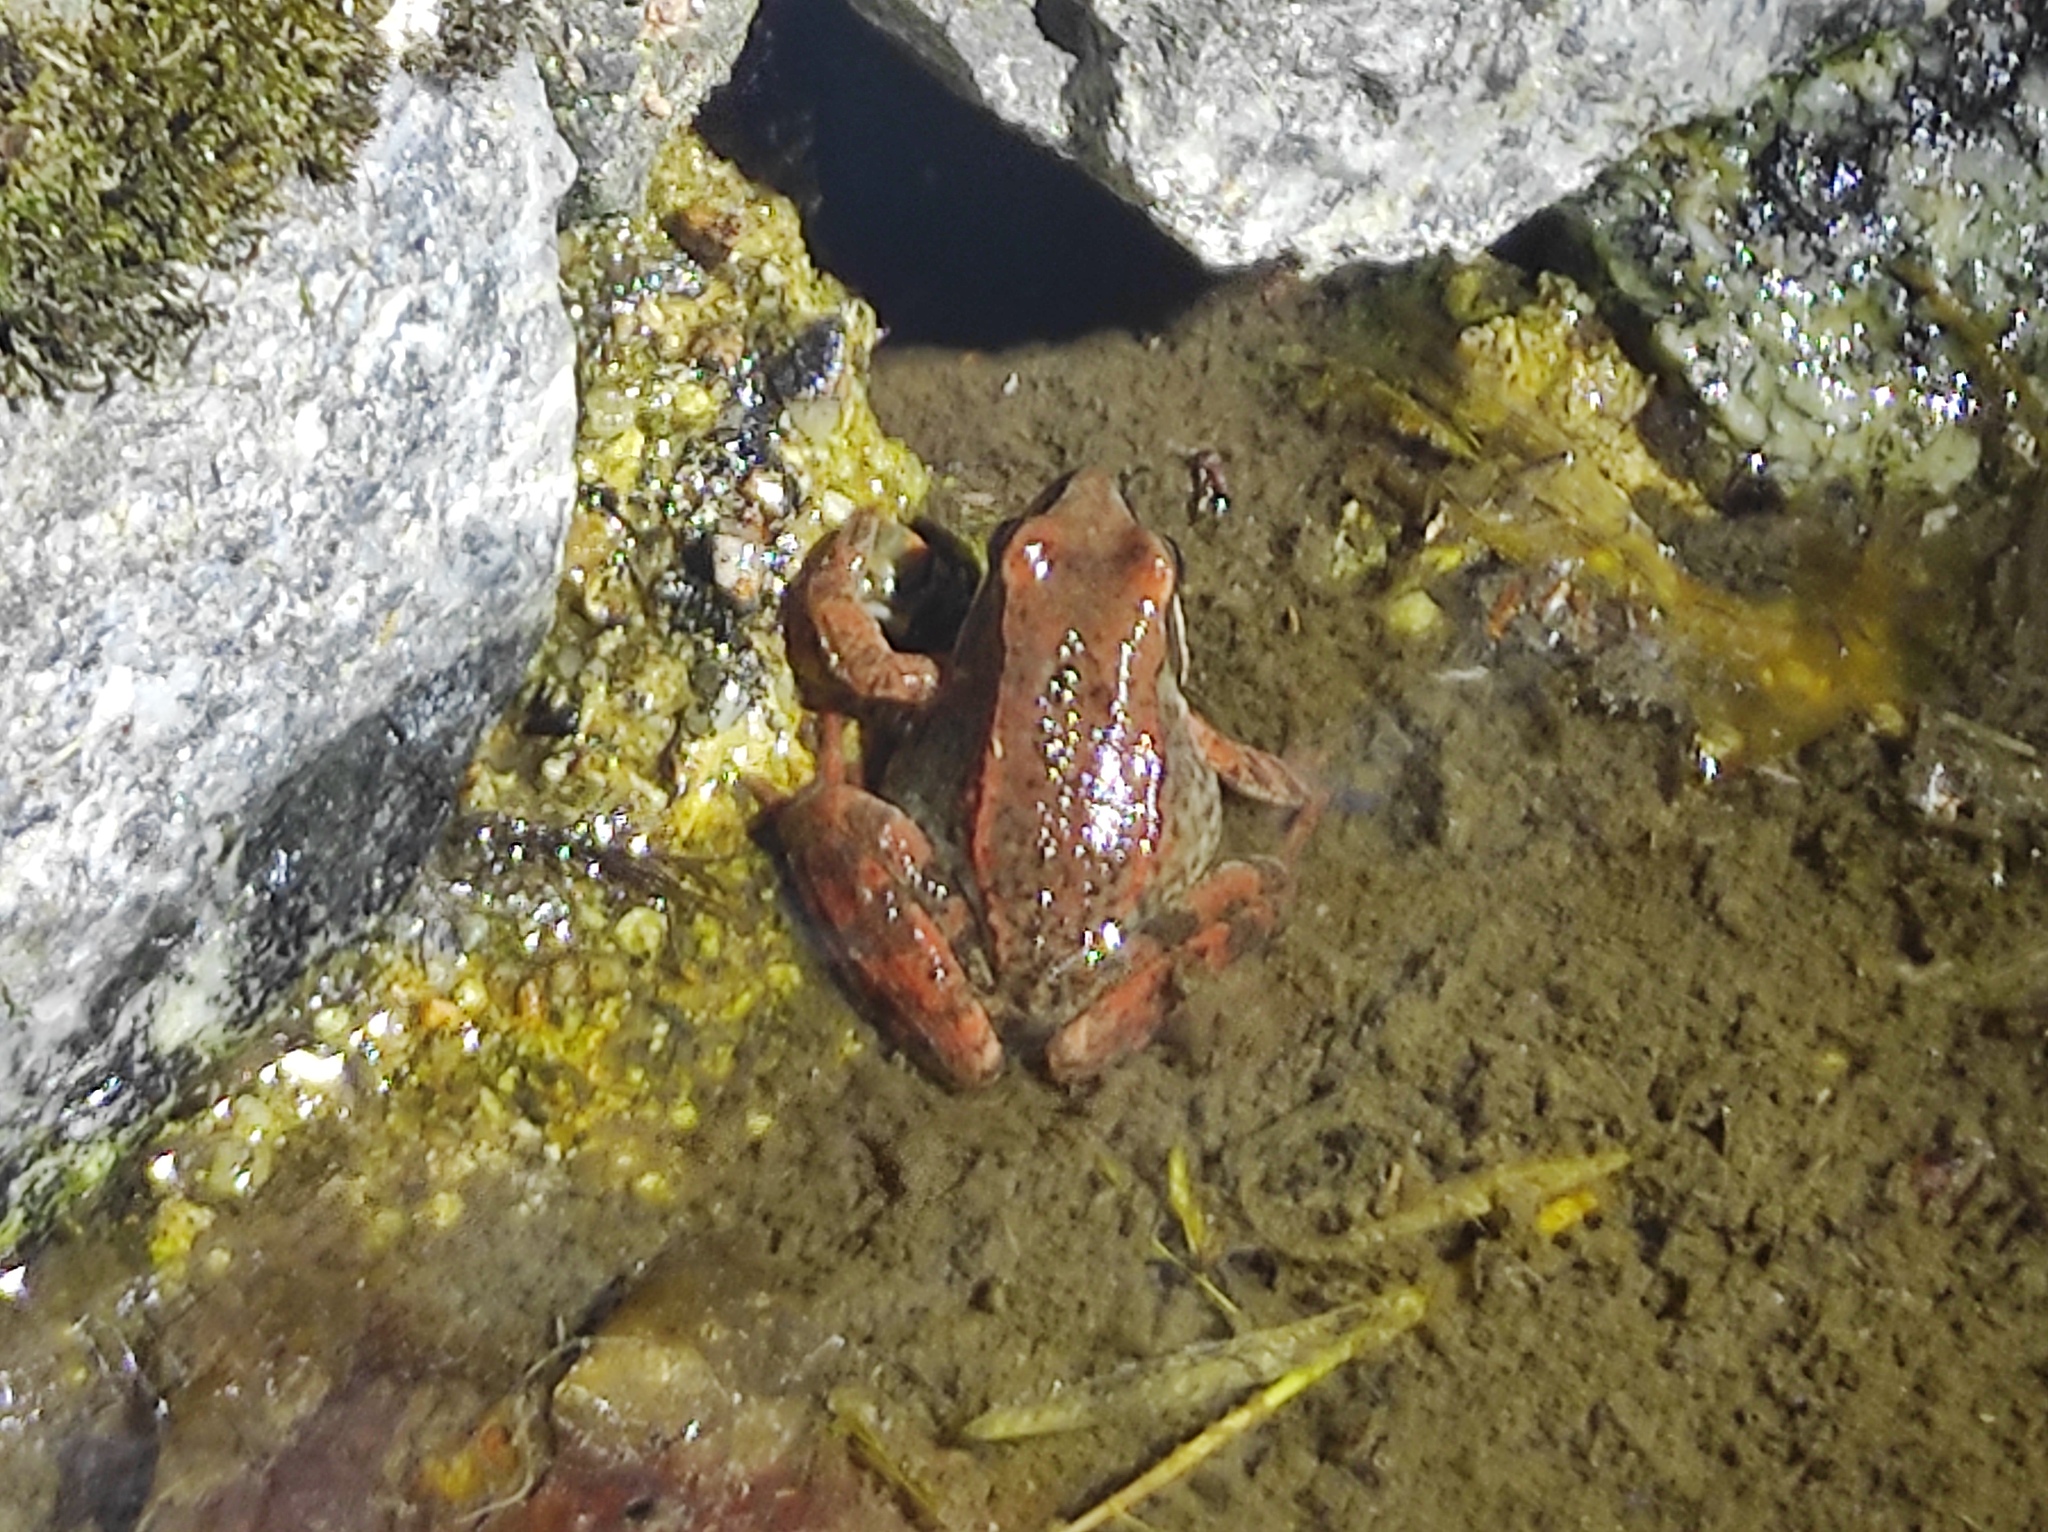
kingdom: Animalia
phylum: Chordata
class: Amphibia
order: Anura
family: Ranidae
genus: Rana
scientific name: Rana iberica
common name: Iberian frog
